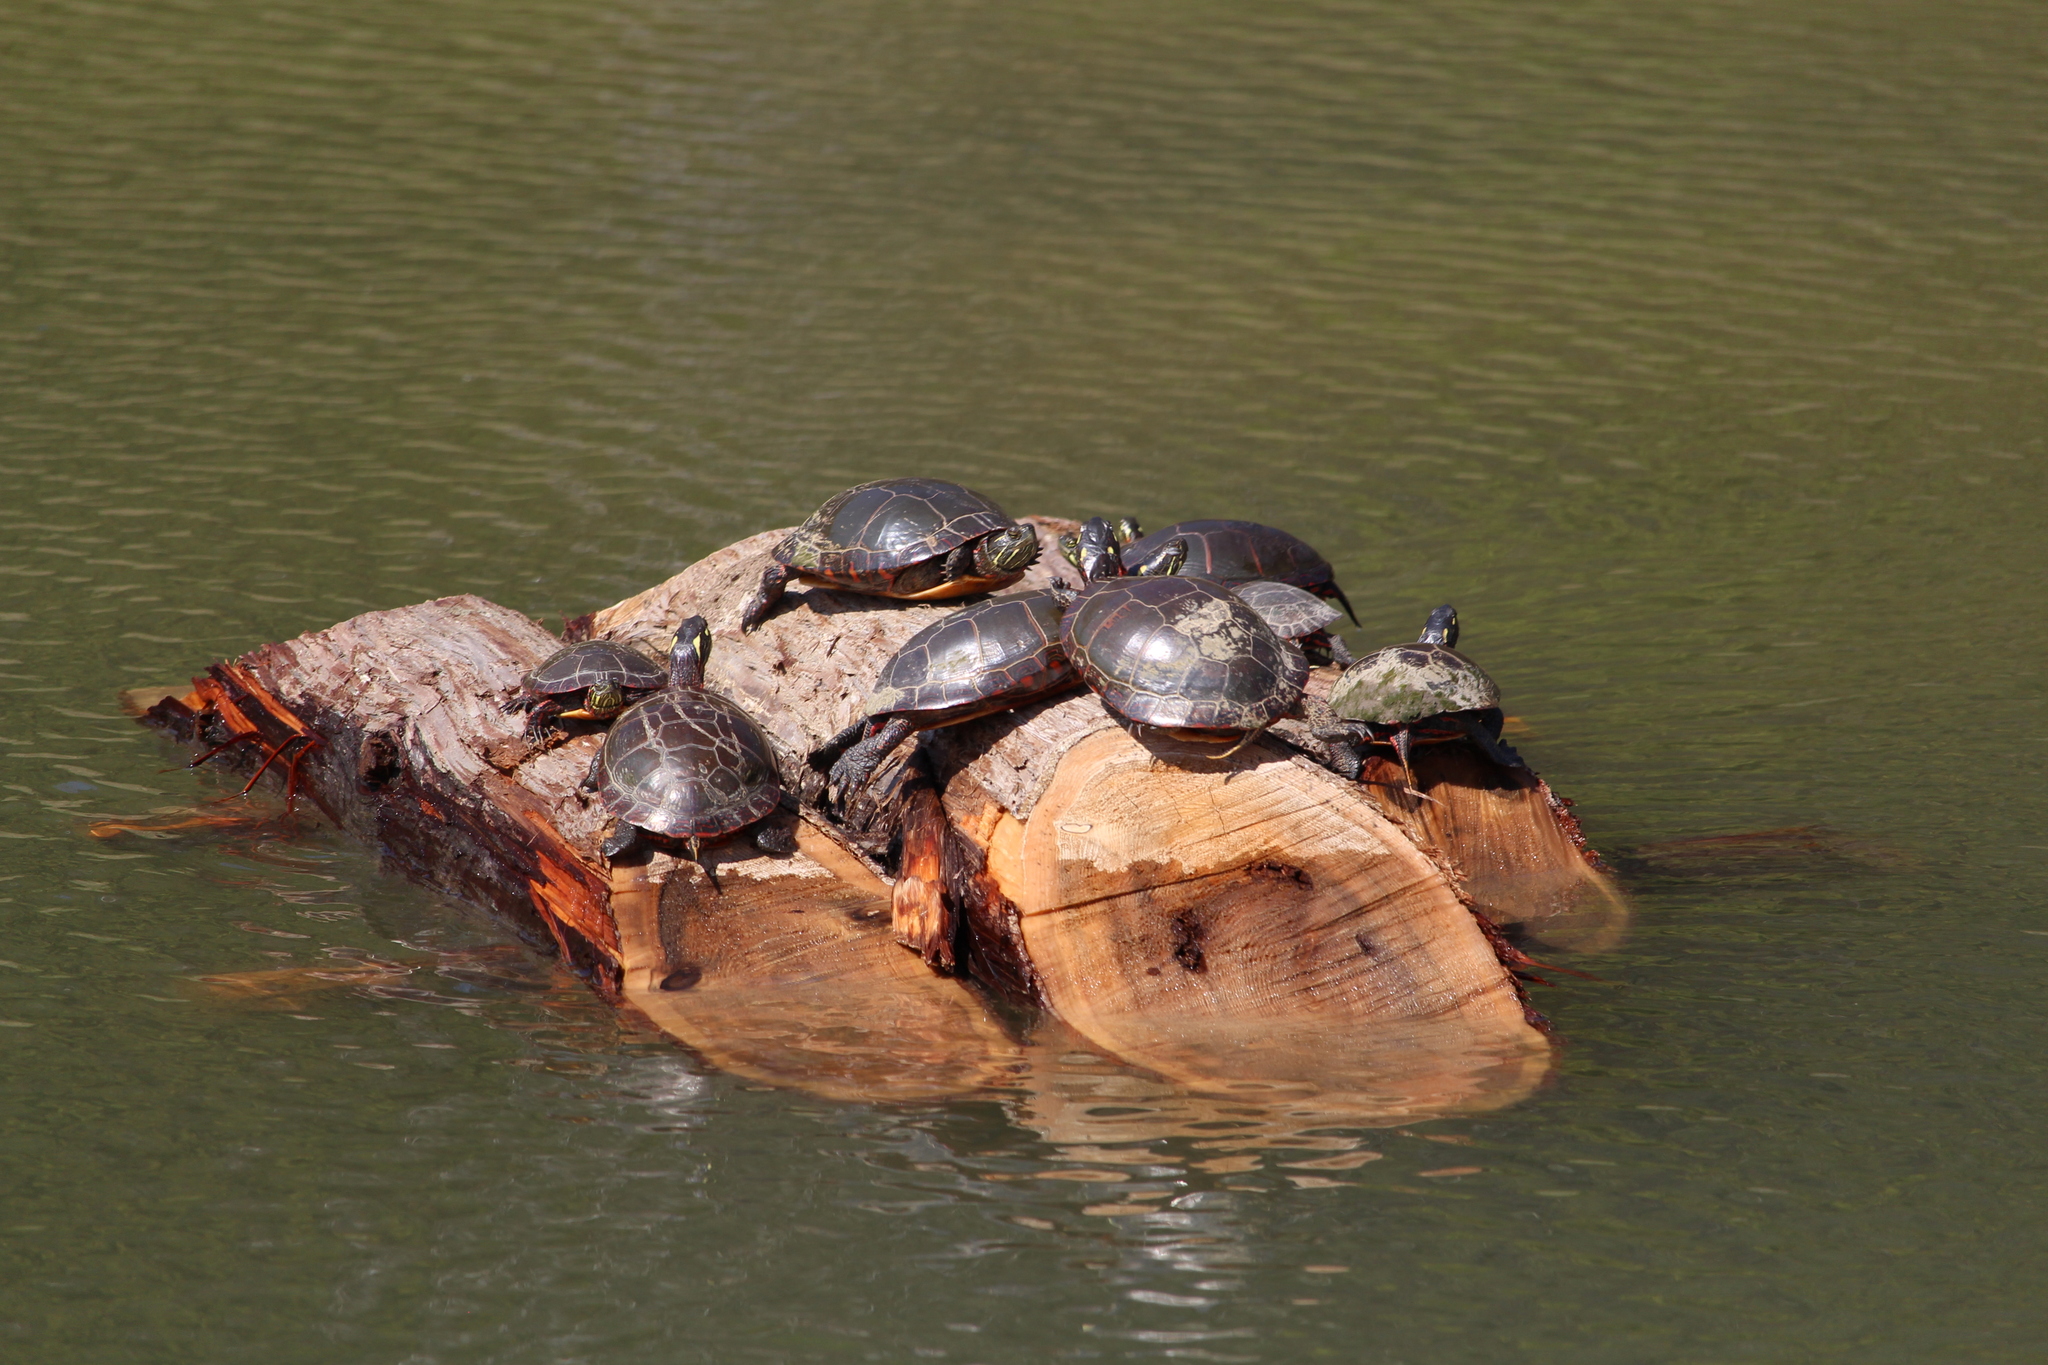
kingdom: Animalia
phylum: Chordata
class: Testudines
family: Emydidae
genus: Chrysemys
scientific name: Chrysemys picta
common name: Painted turtle
